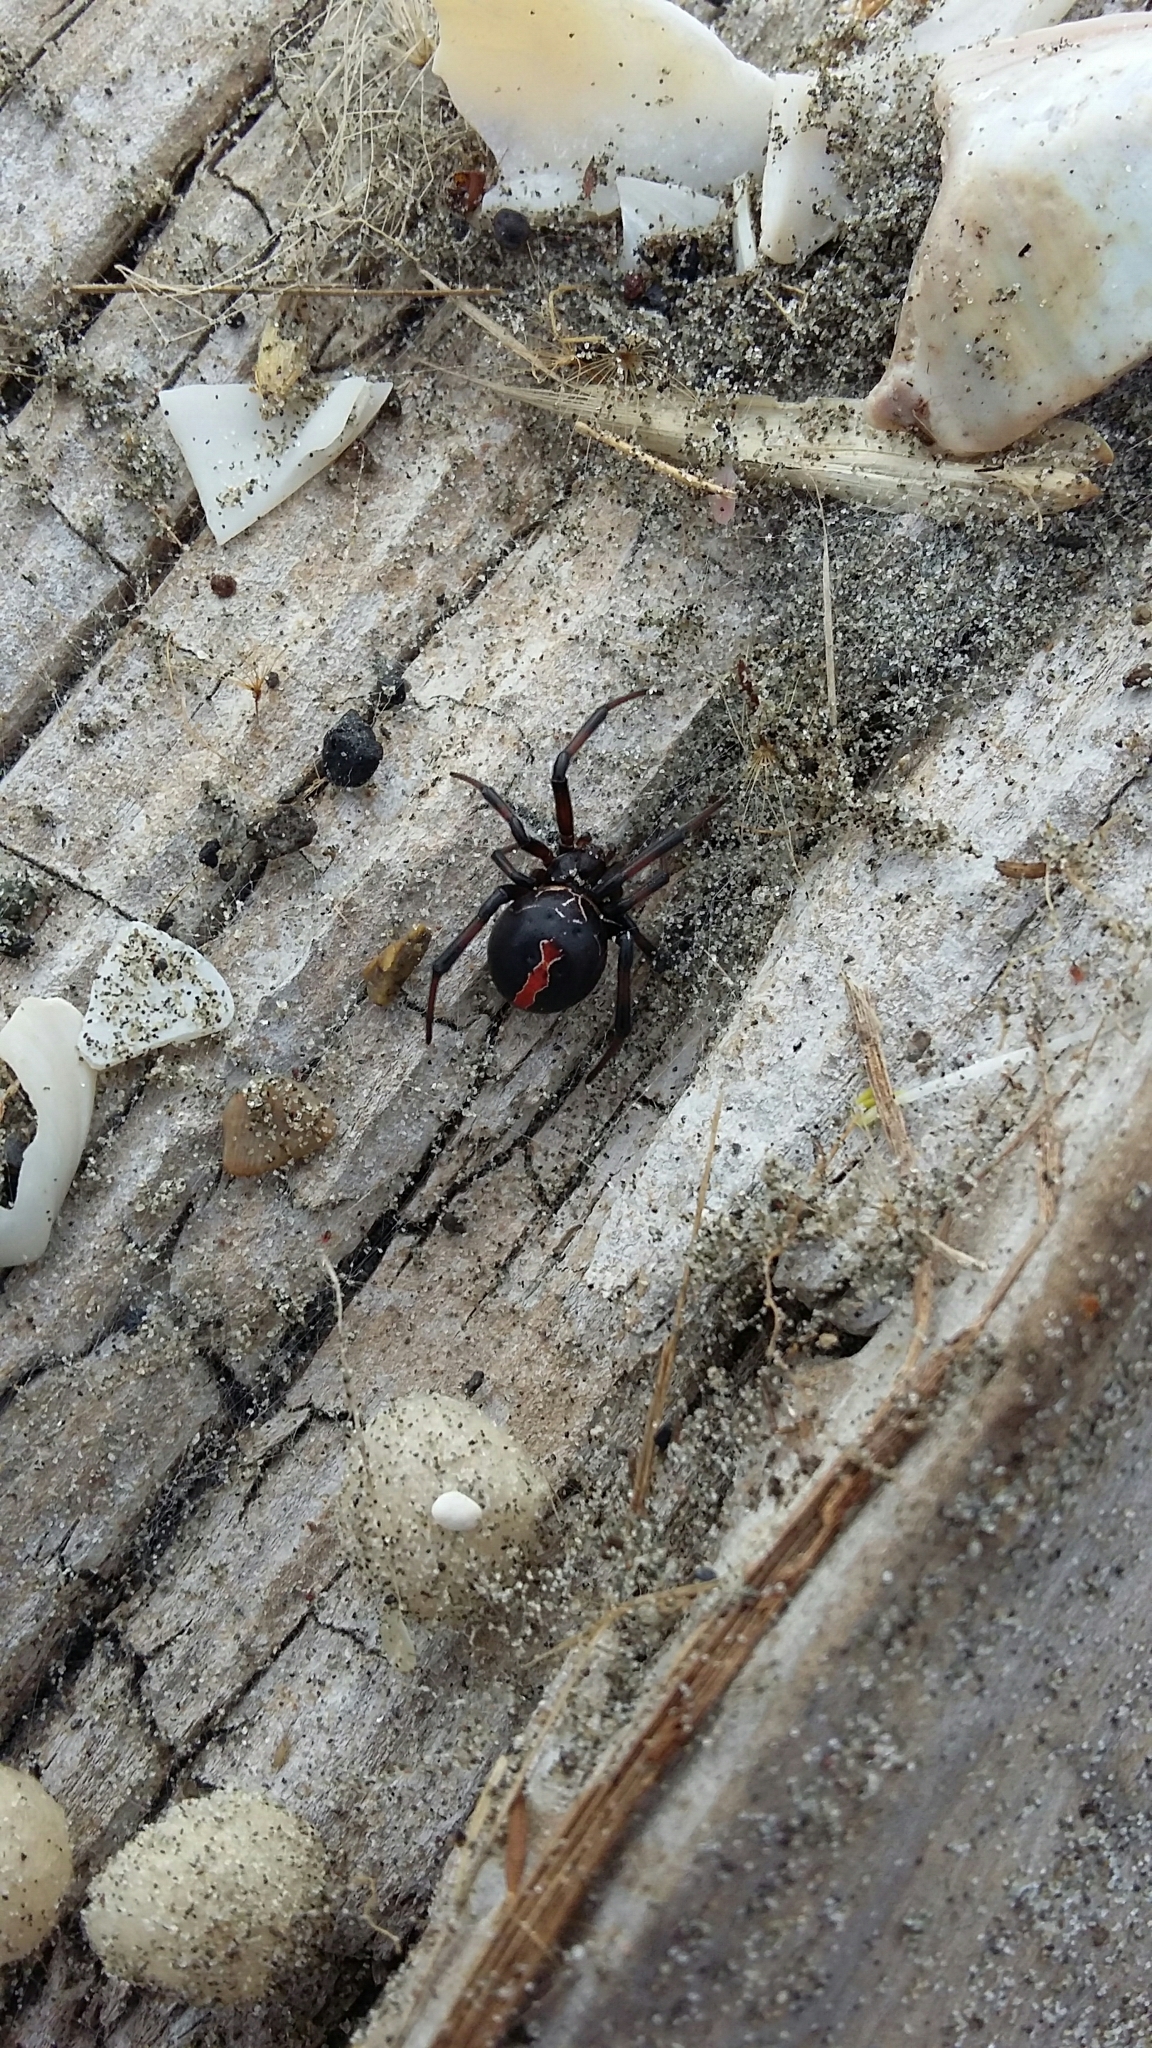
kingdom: Animalia
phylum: Arthropoda
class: Arachnida
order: Araneae
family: Theridiidae
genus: Latrodectus
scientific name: Latrodectus katipo
